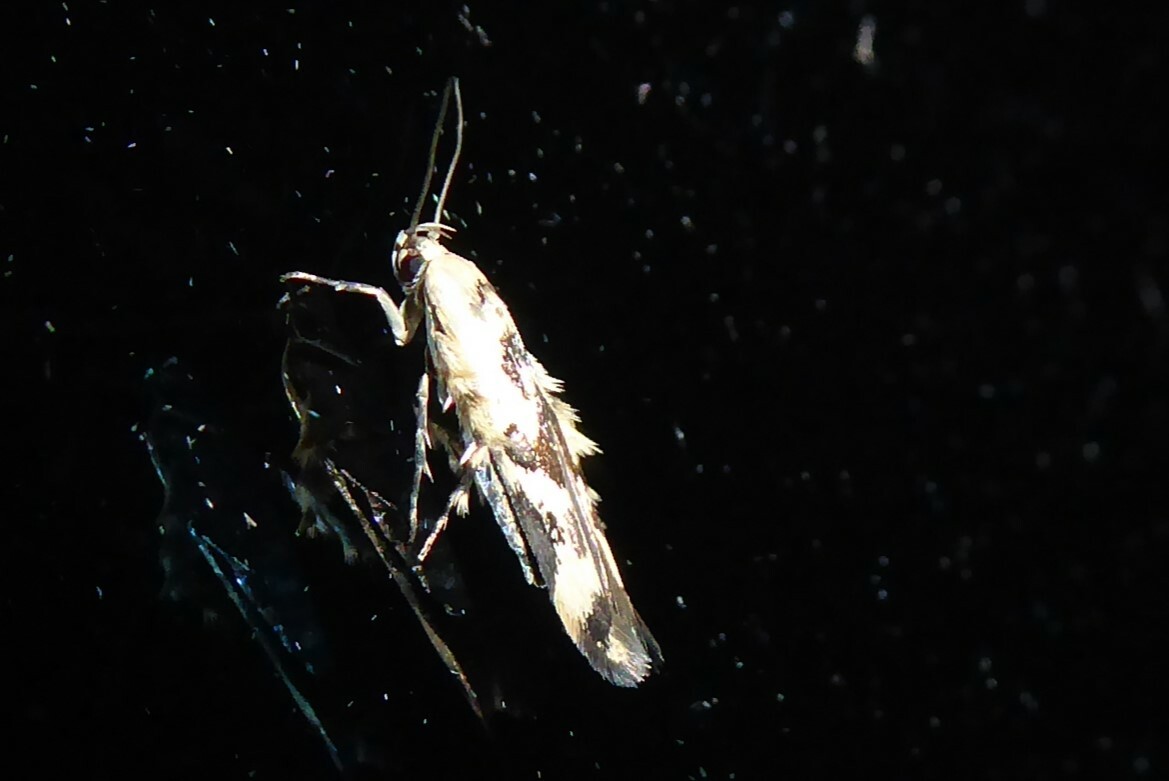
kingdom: Animalia
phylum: Arthropoda
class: Insecta
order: Lepidoptera
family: Stathmopodidae
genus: Stathmopoda
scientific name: Stathmopoda melanochra
